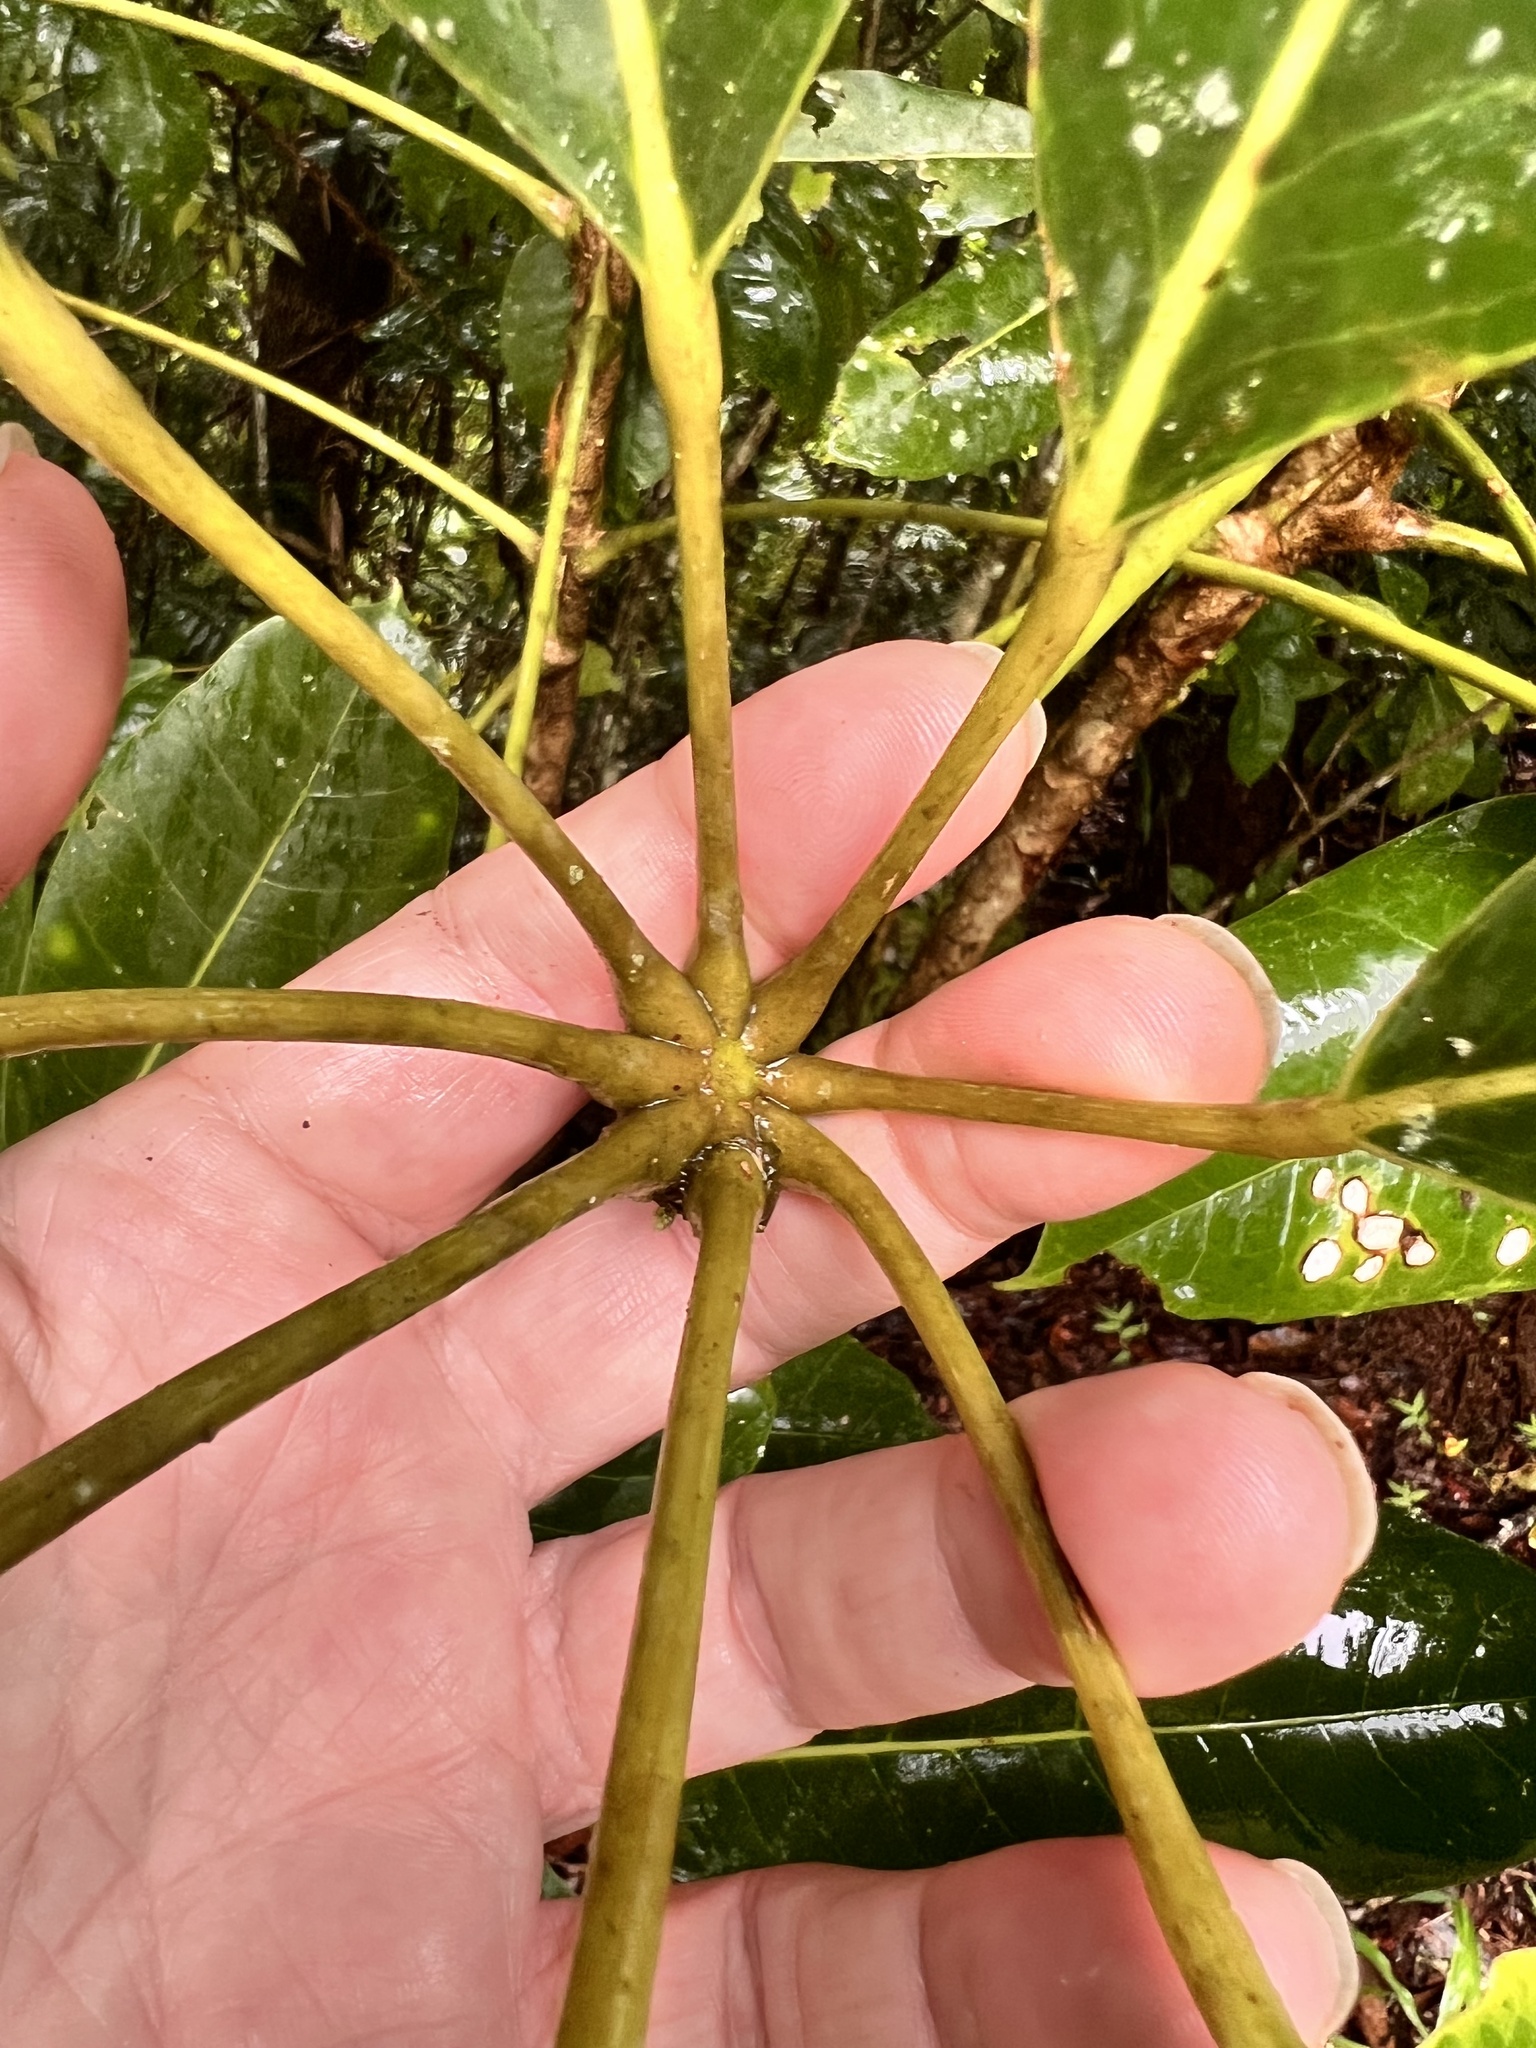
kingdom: Plantae
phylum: Tracheophyta
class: Magnoliopsida
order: Apiales
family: Araliaceae
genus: Heptapleurum
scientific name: Heptapleurum actinophyllum
